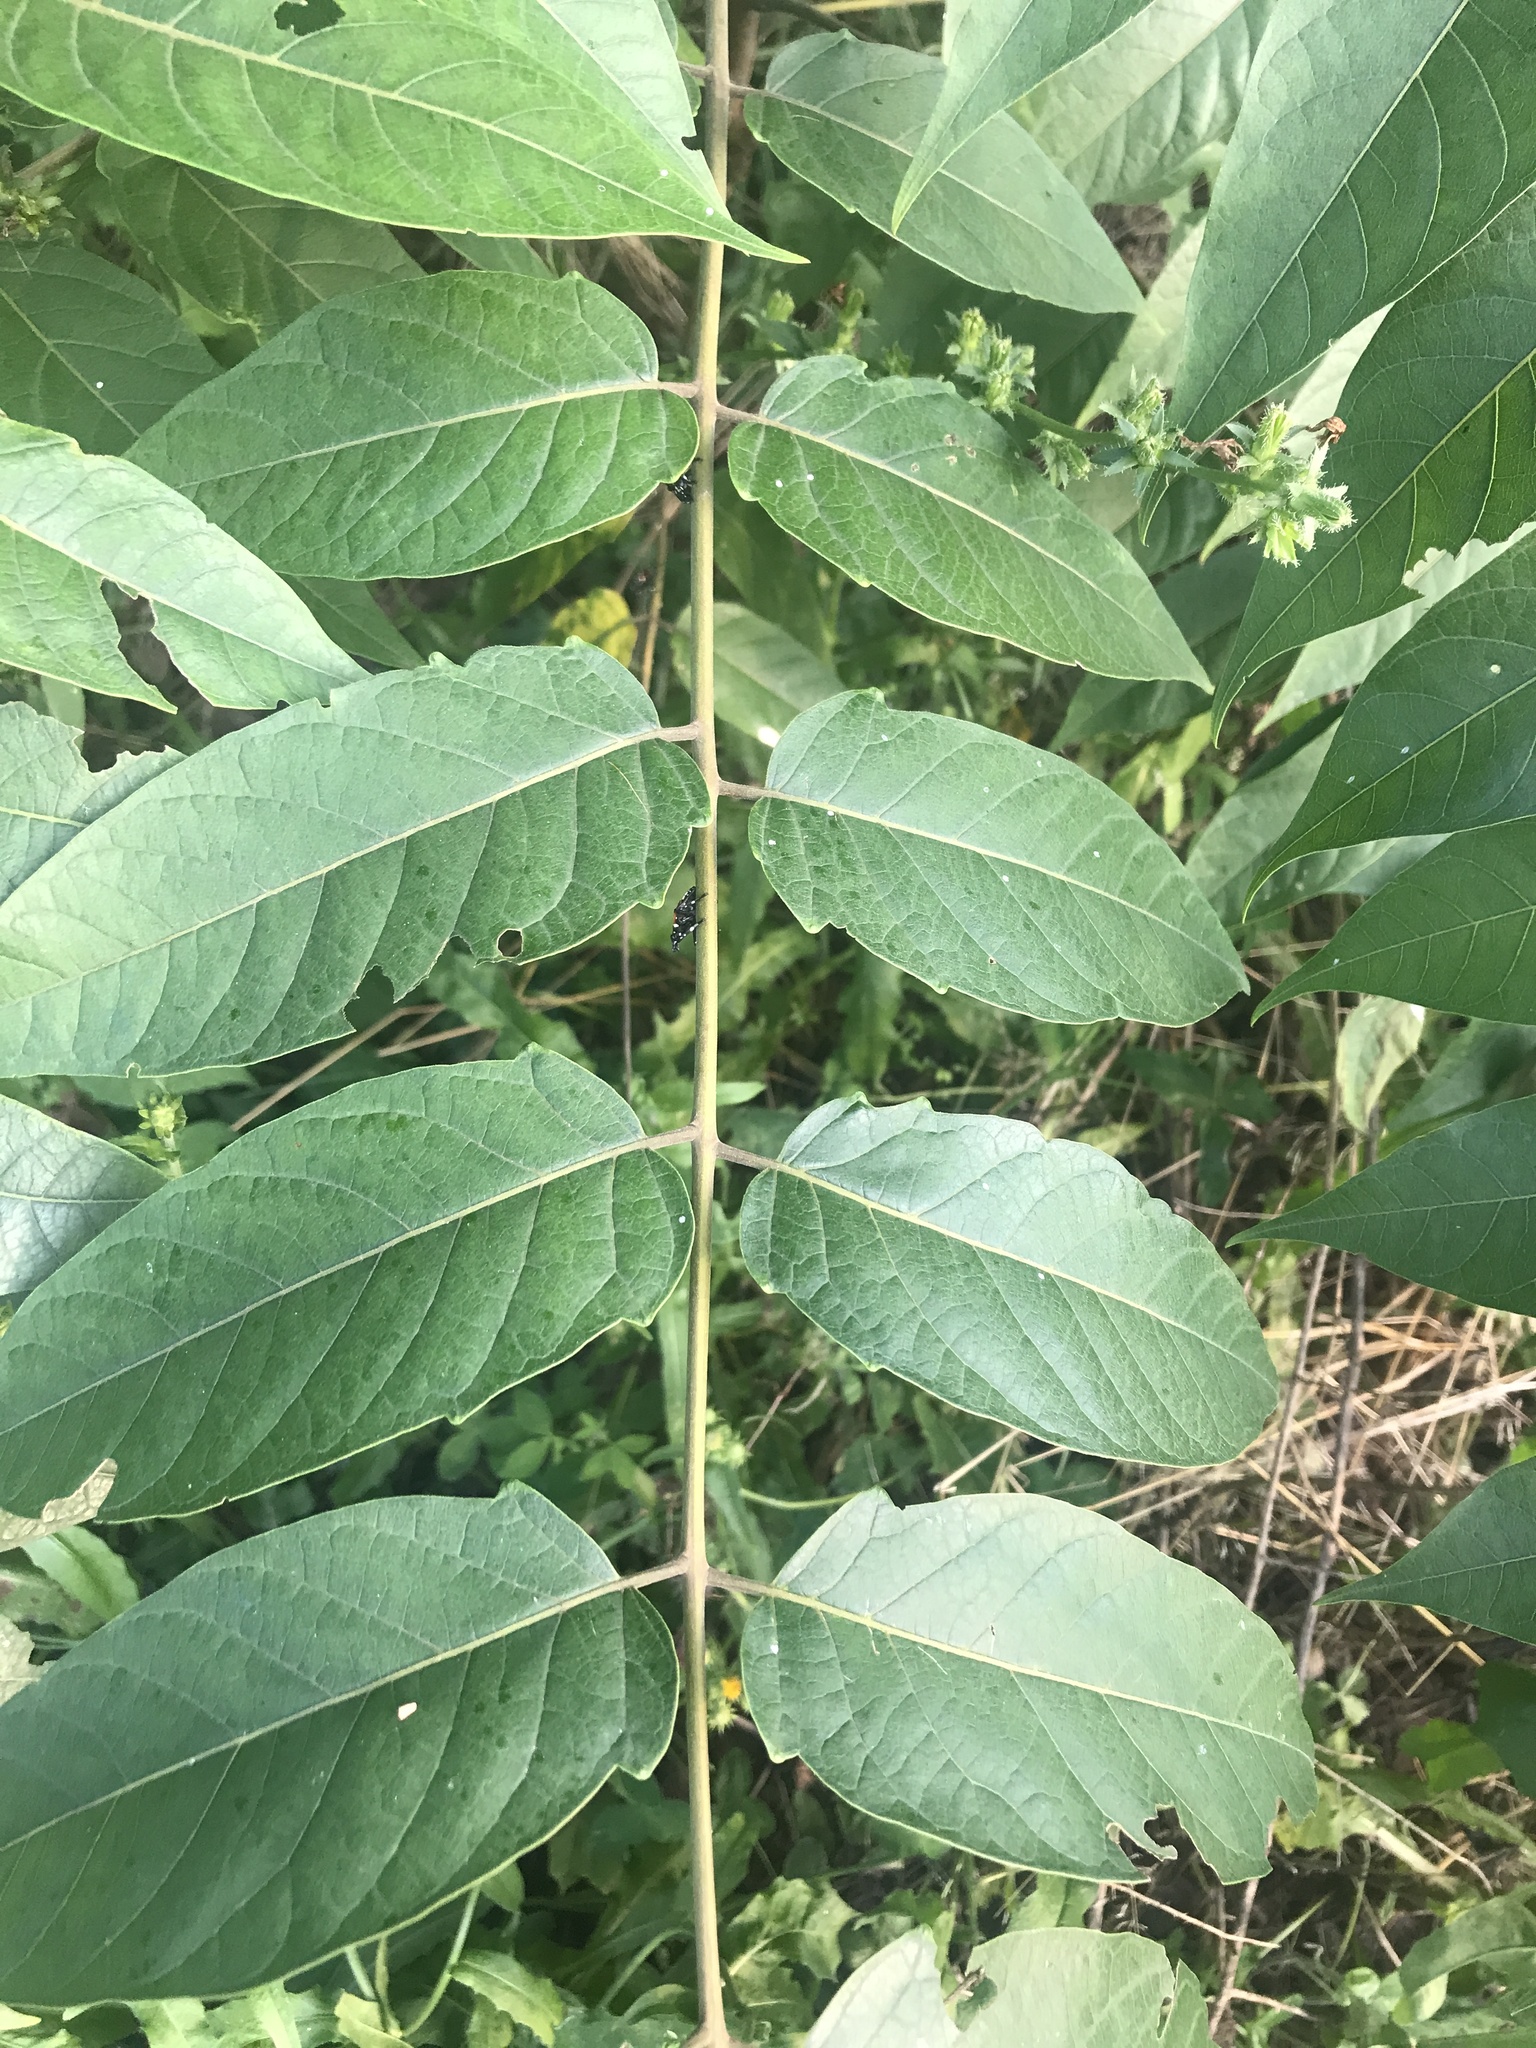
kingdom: Plantae
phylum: Tracheophyta
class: Magnoliopsida
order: Sapindales
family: Simaroubaceae
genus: Ailanthus
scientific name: Ailanthus altissima
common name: Tree-of-heaven
